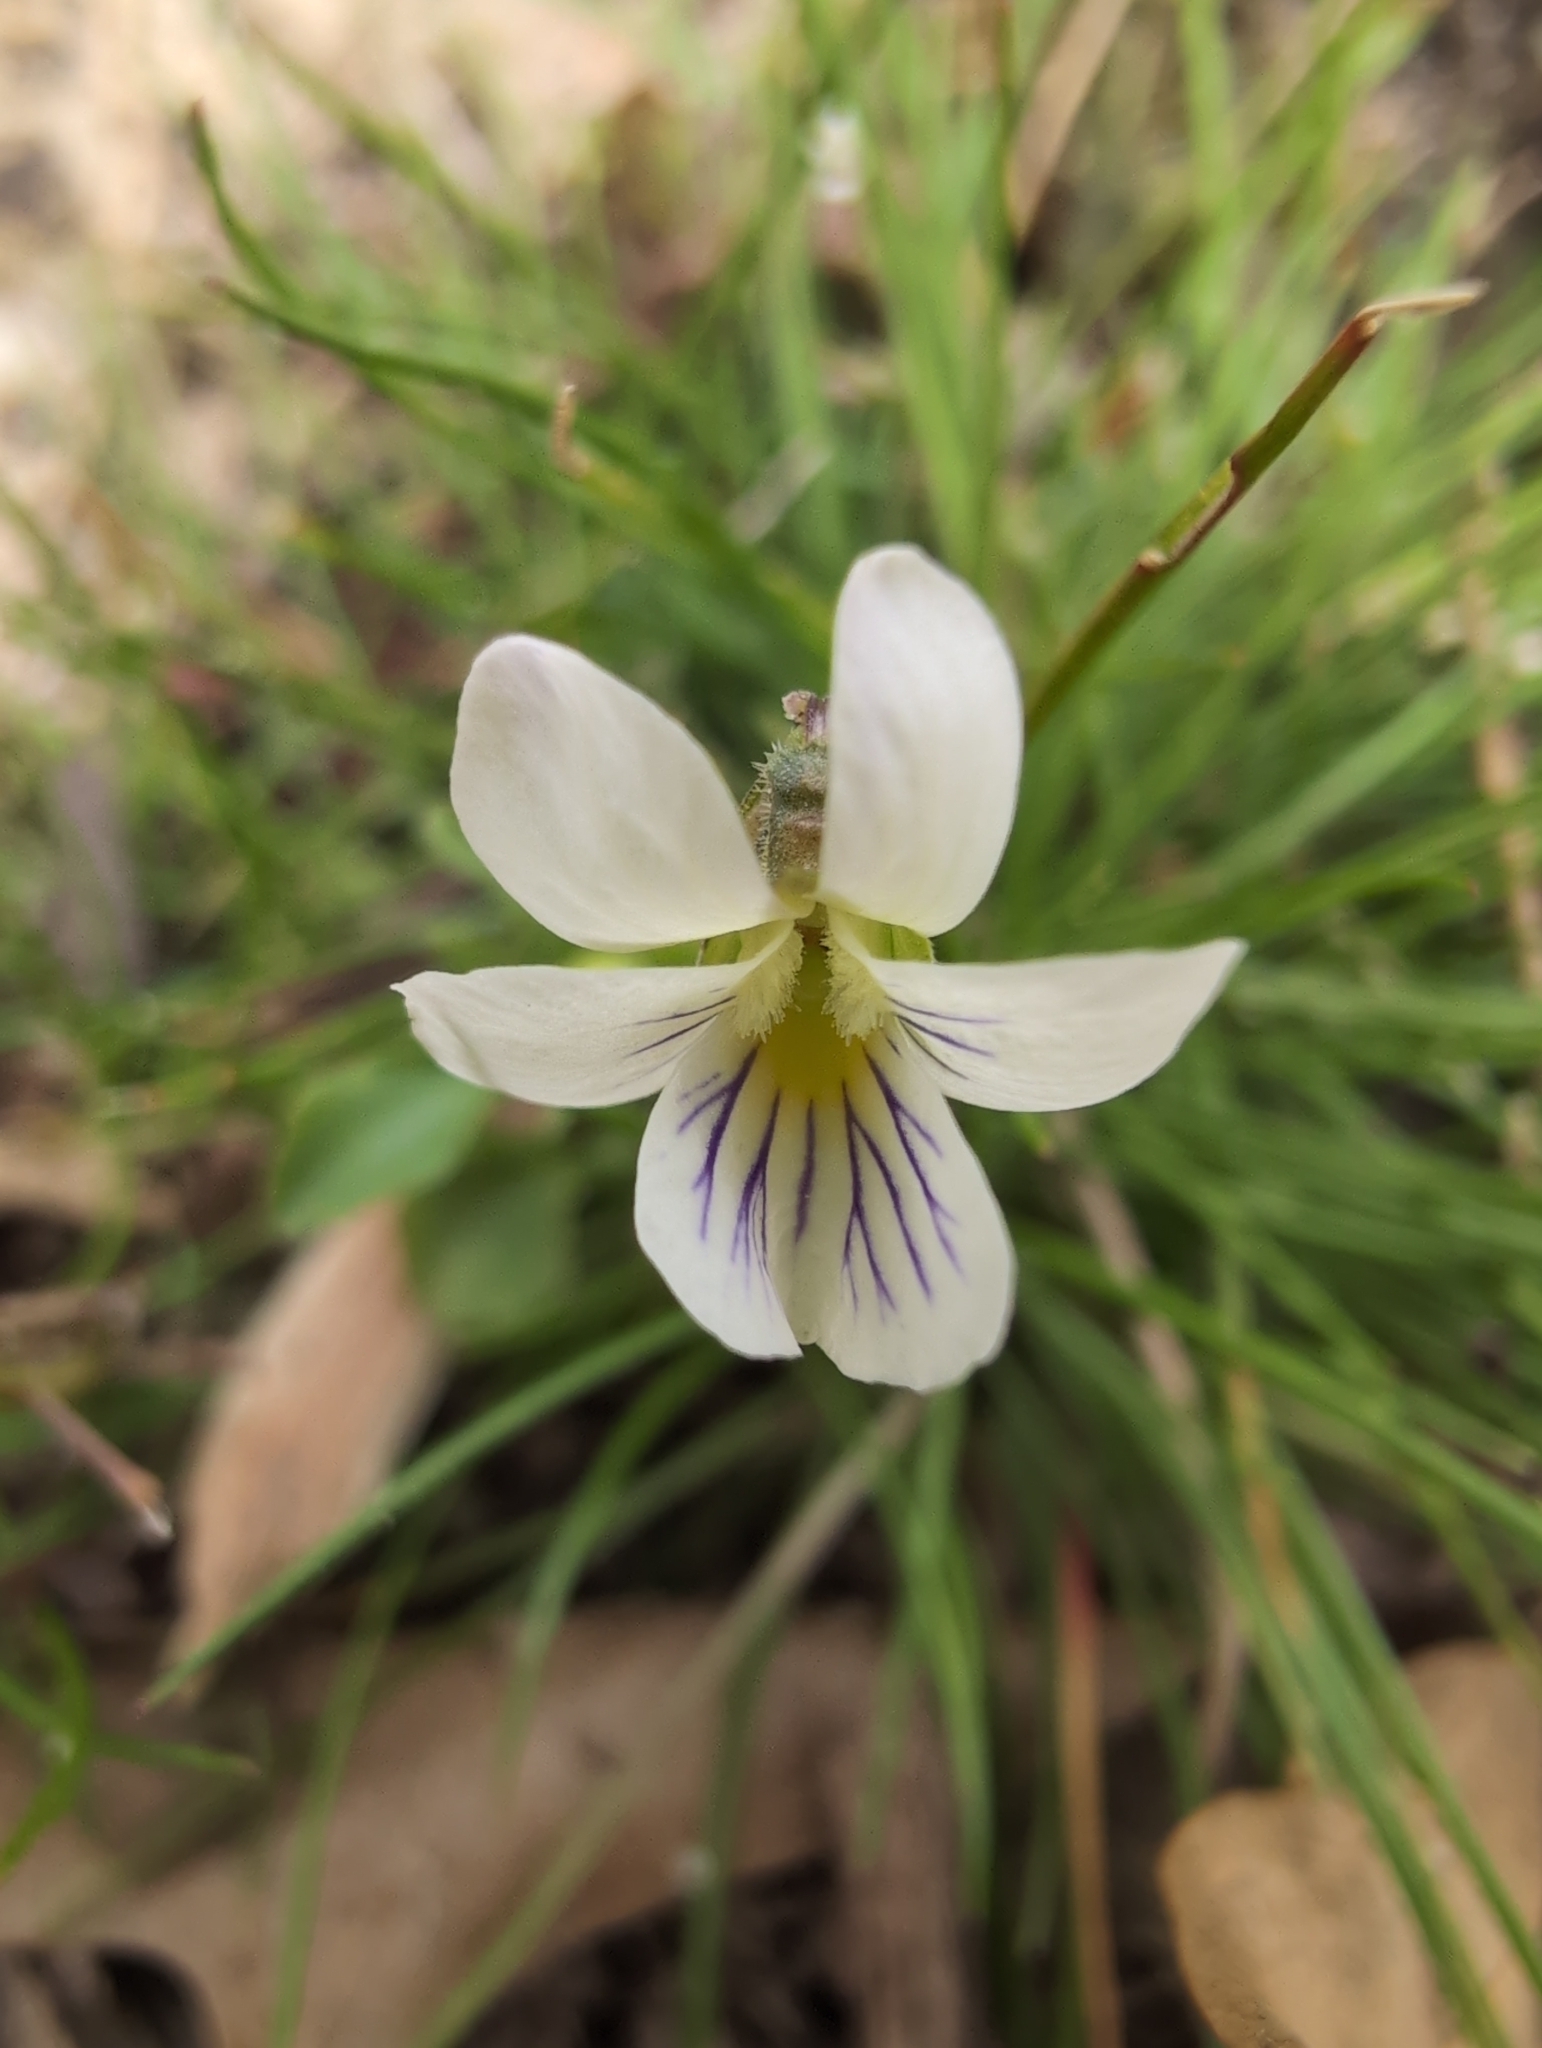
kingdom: Plantae
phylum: Tracheophyta
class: Magnoliopsida
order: Malpighiales
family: Violaceae
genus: Viola
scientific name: Viola rafinesquei
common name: American field pansy
